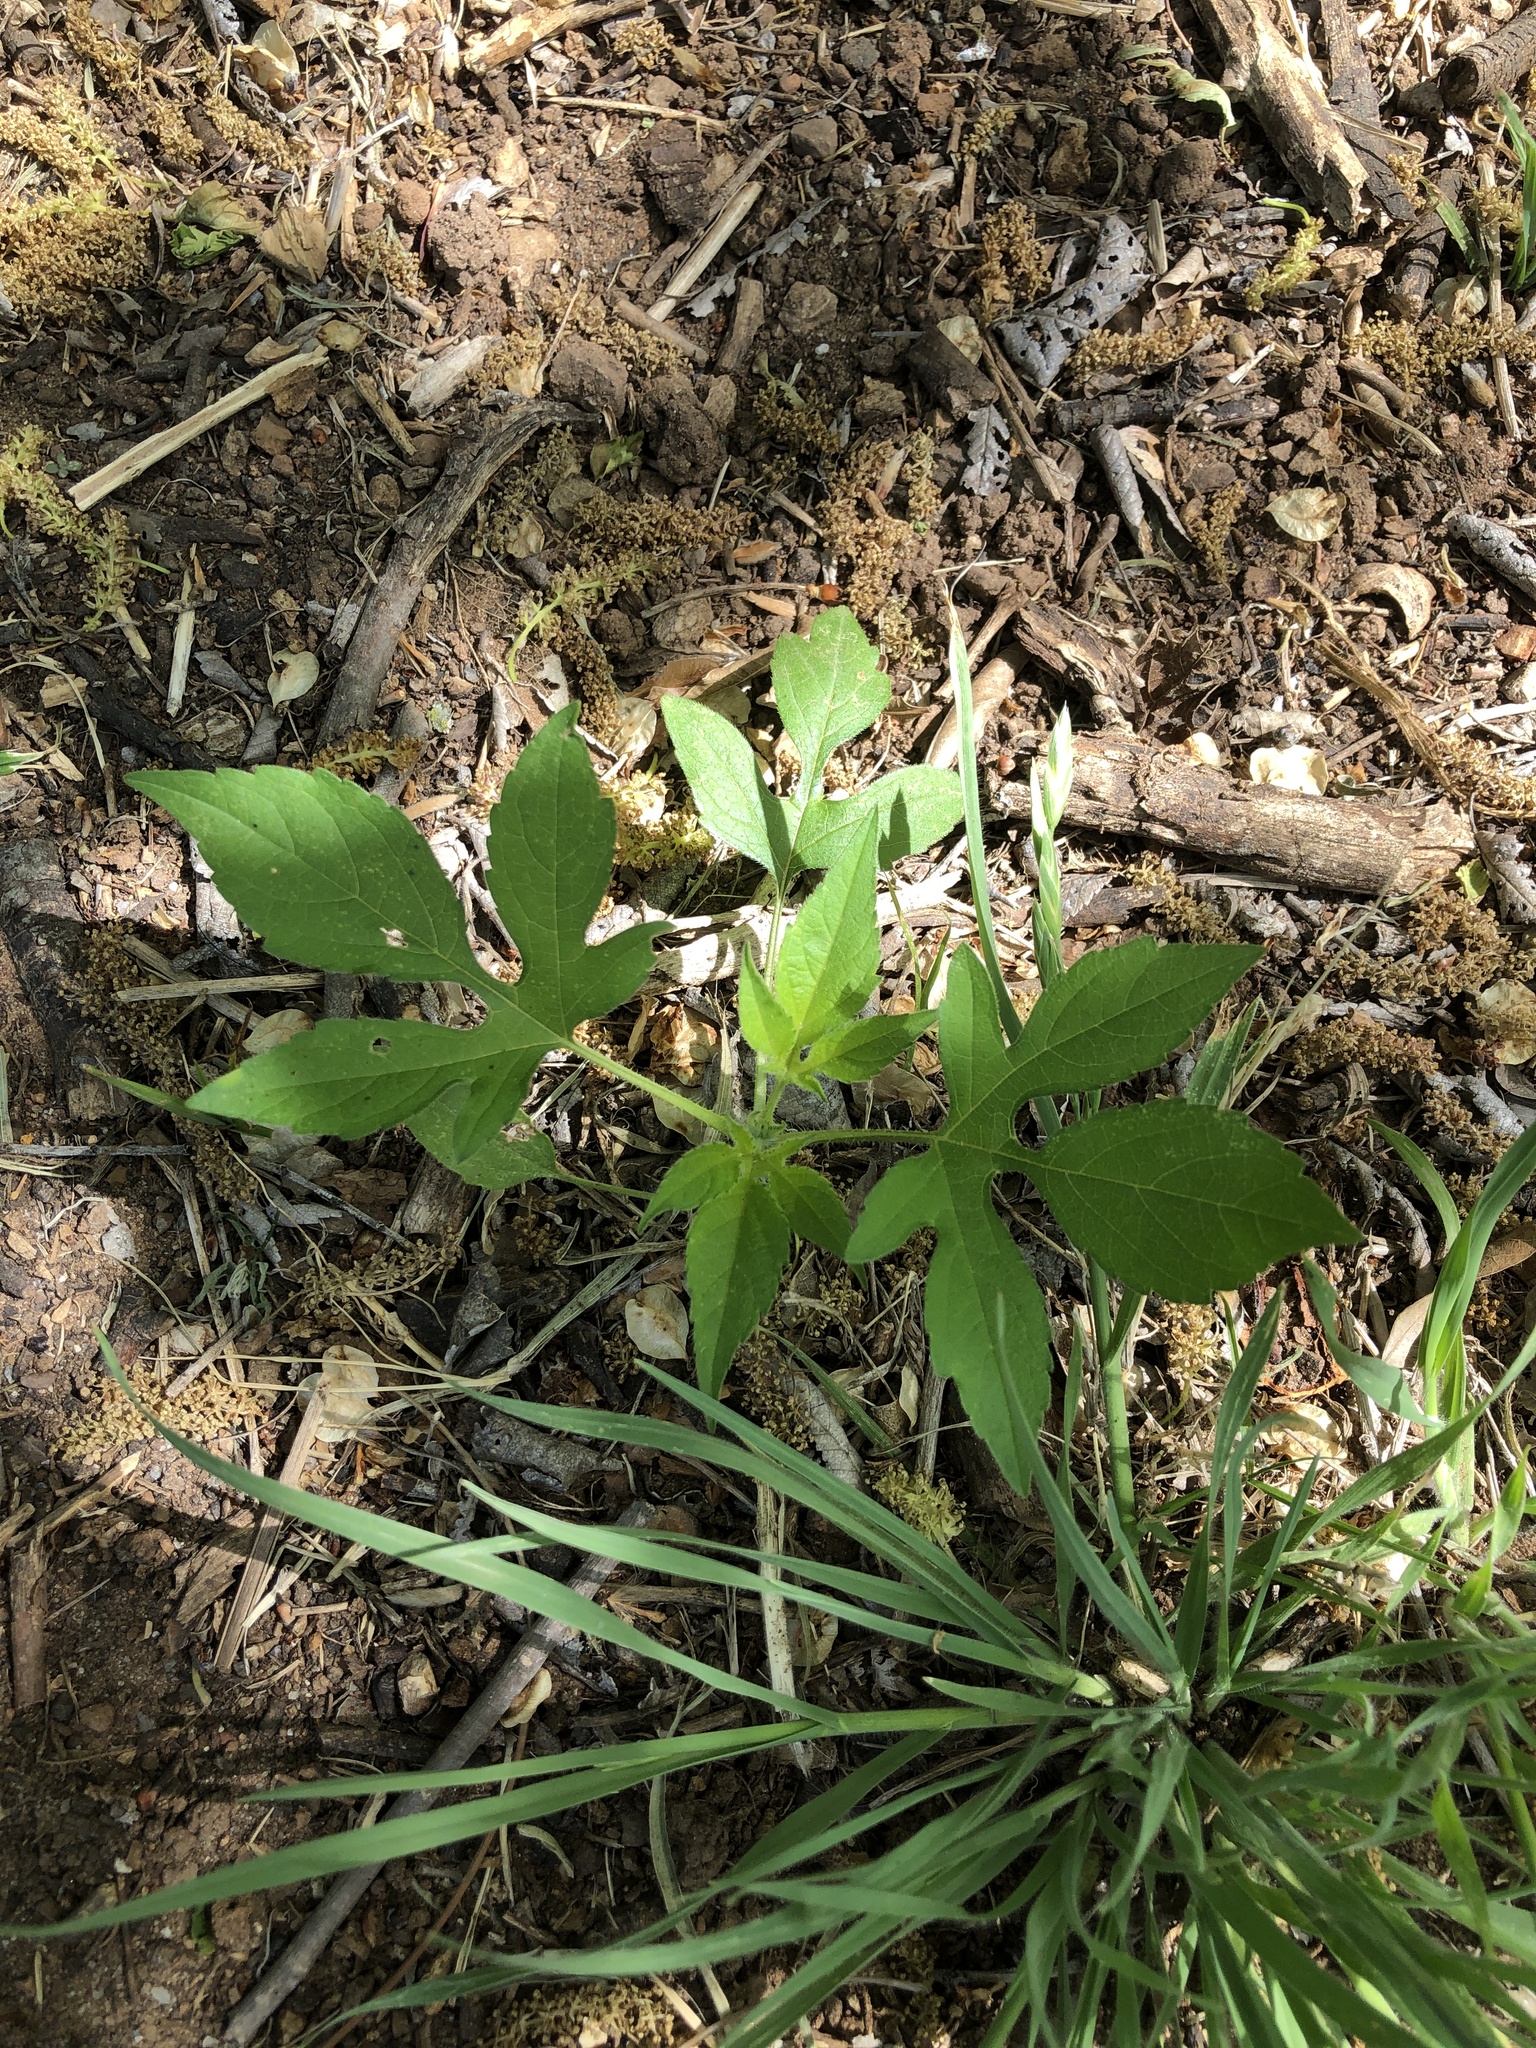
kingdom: Plantae
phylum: Tracheophyta
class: Magnoliopsida
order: Asterales
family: Asteraceae
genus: Ambrosia
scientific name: Ambrosia trifida
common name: Giant ragweed
